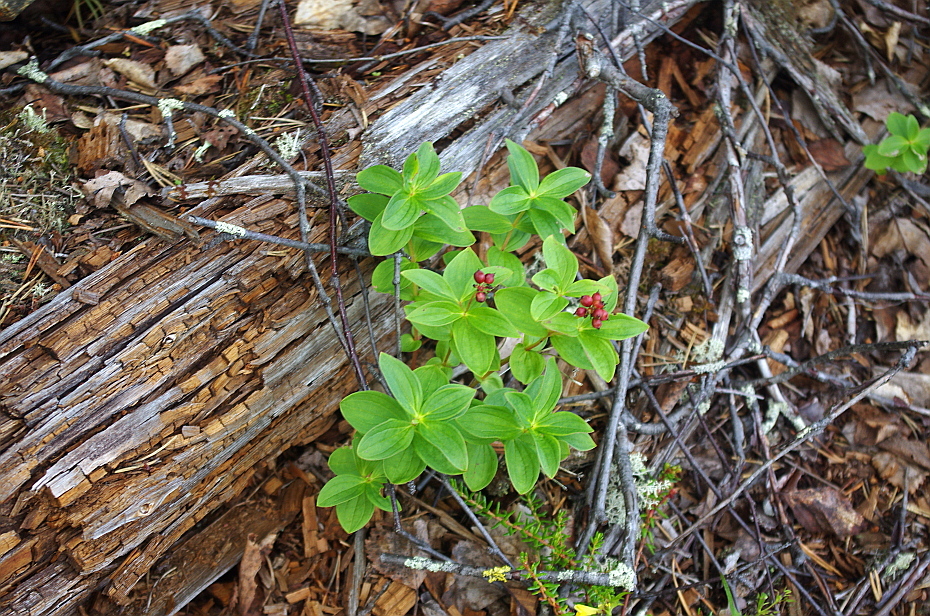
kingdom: Plantae
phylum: Tracheophyta
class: Magnoliopsida
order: Cornales
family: Cornaceae
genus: Cornus
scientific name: Cornus suecica
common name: Dwarf cornel
